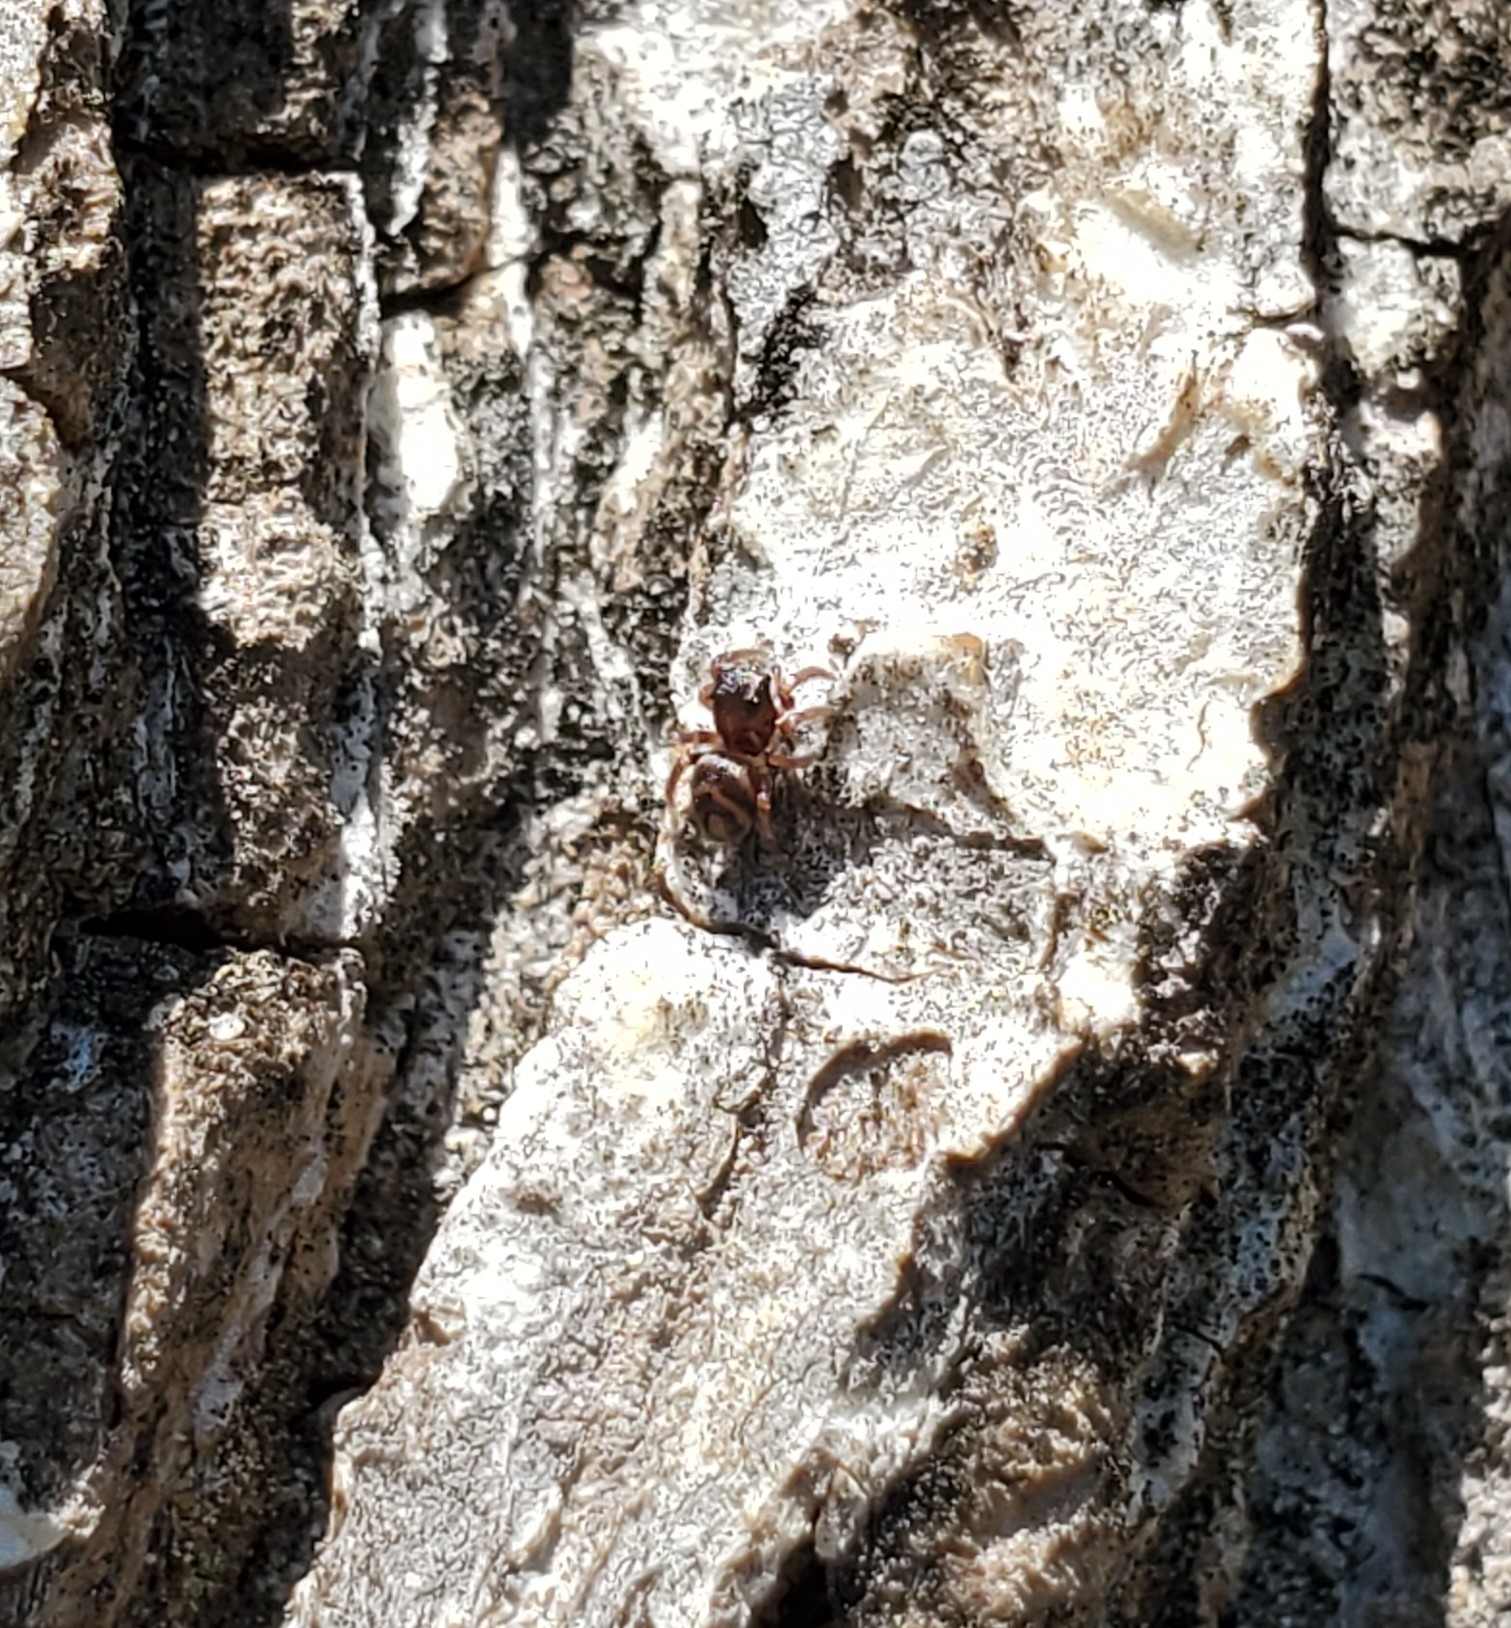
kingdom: Animalia
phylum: Arthropoda
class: Arachnida
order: Araneae
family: Salticidae
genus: Chalcoscirtus
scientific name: Chalcoscirtus diminutus
